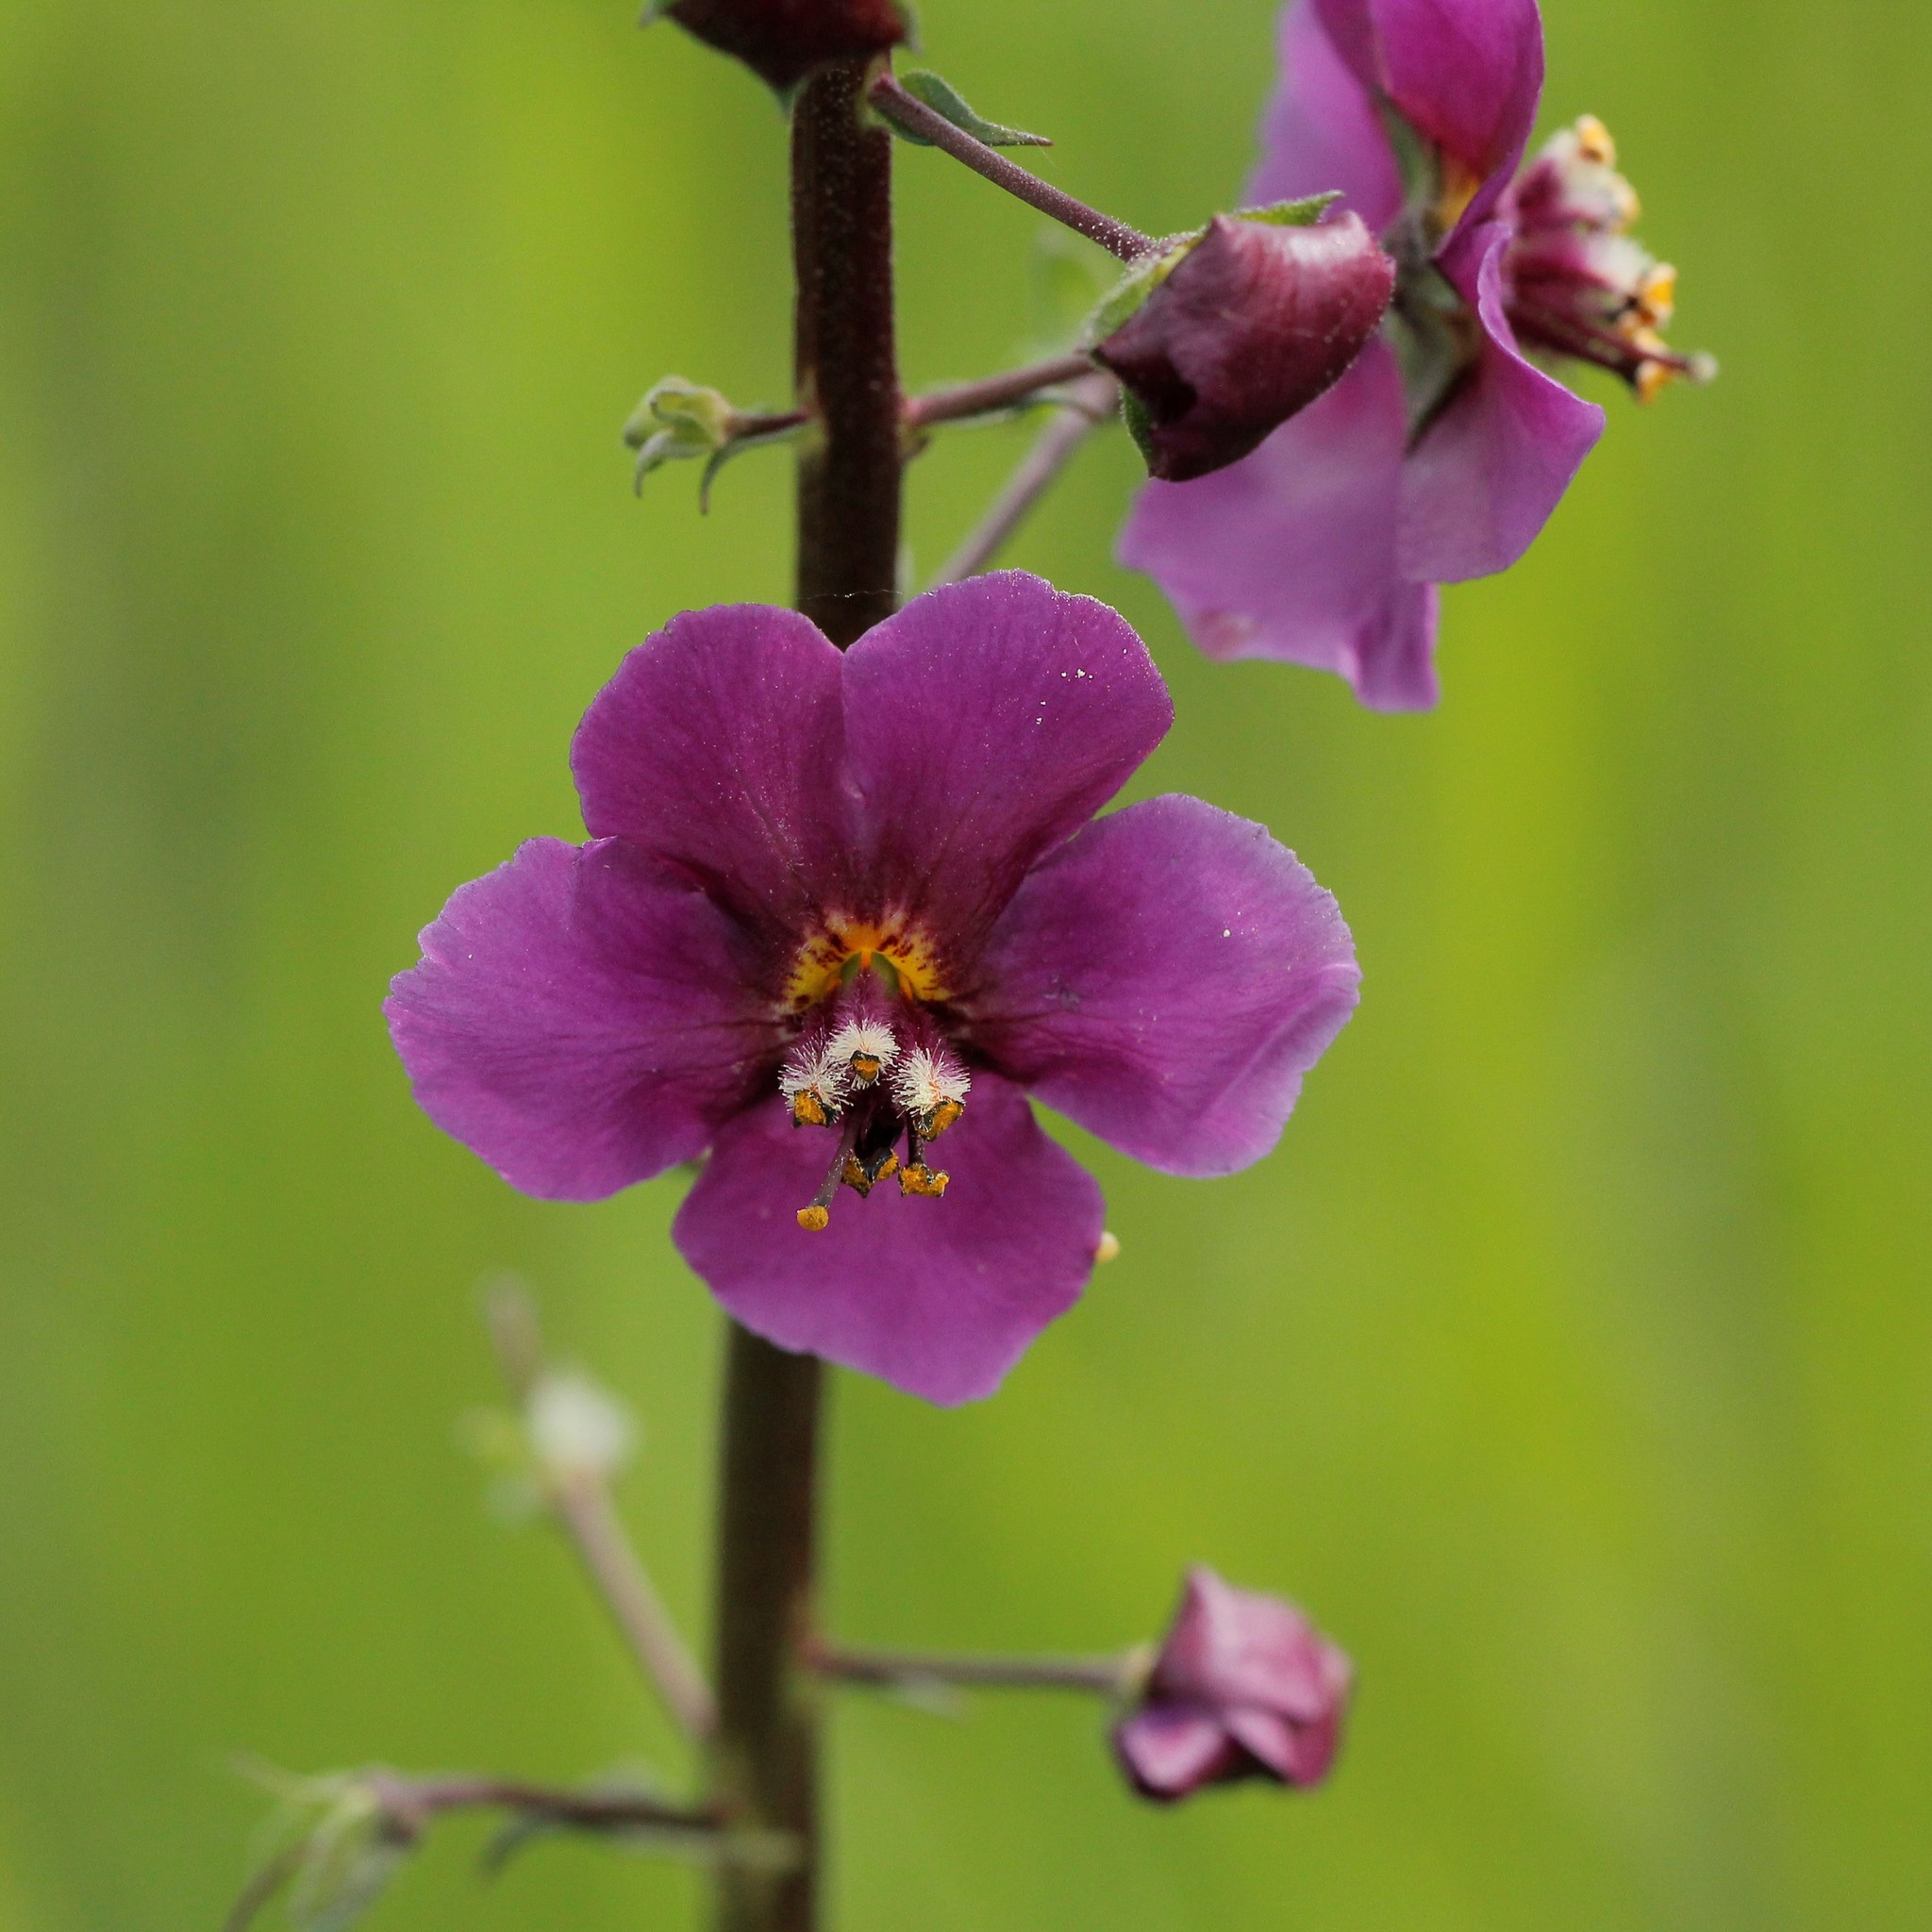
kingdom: Plantae
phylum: Tracheophyta
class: Magnoliopsida
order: Lamiales
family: Scrophulariaceae
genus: Verbascum
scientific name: Verbascum phoeniceum
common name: Purple mullein
